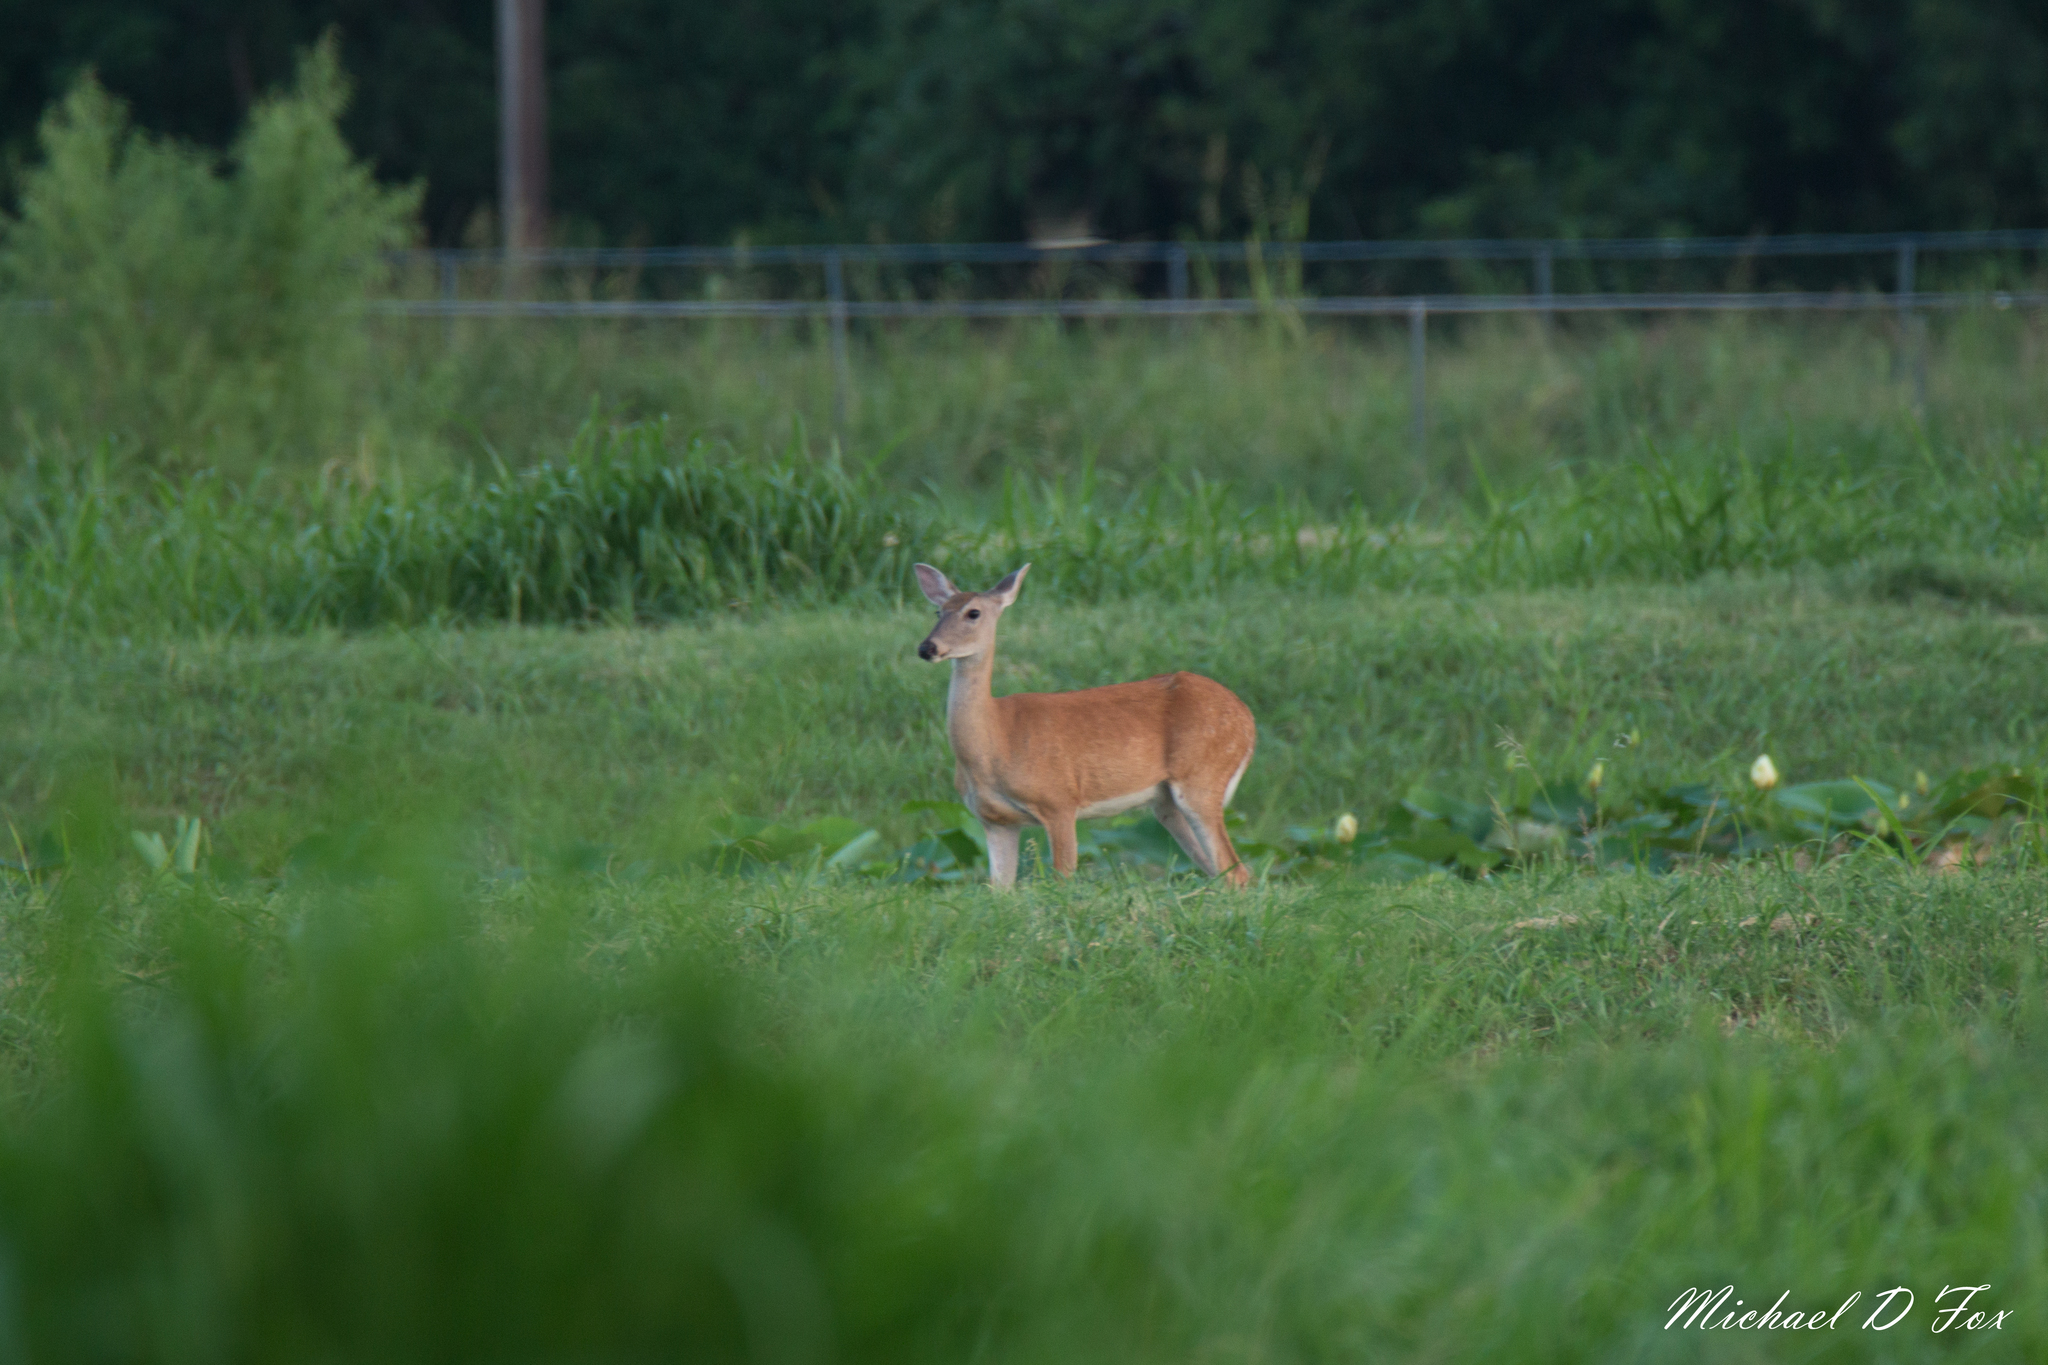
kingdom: Animalia
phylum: Chordata
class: Mammalia
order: Artiodactyla
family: Cervidae
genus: Odocoileus
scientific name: Odocoileus virginianus
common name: White-tailed deer
